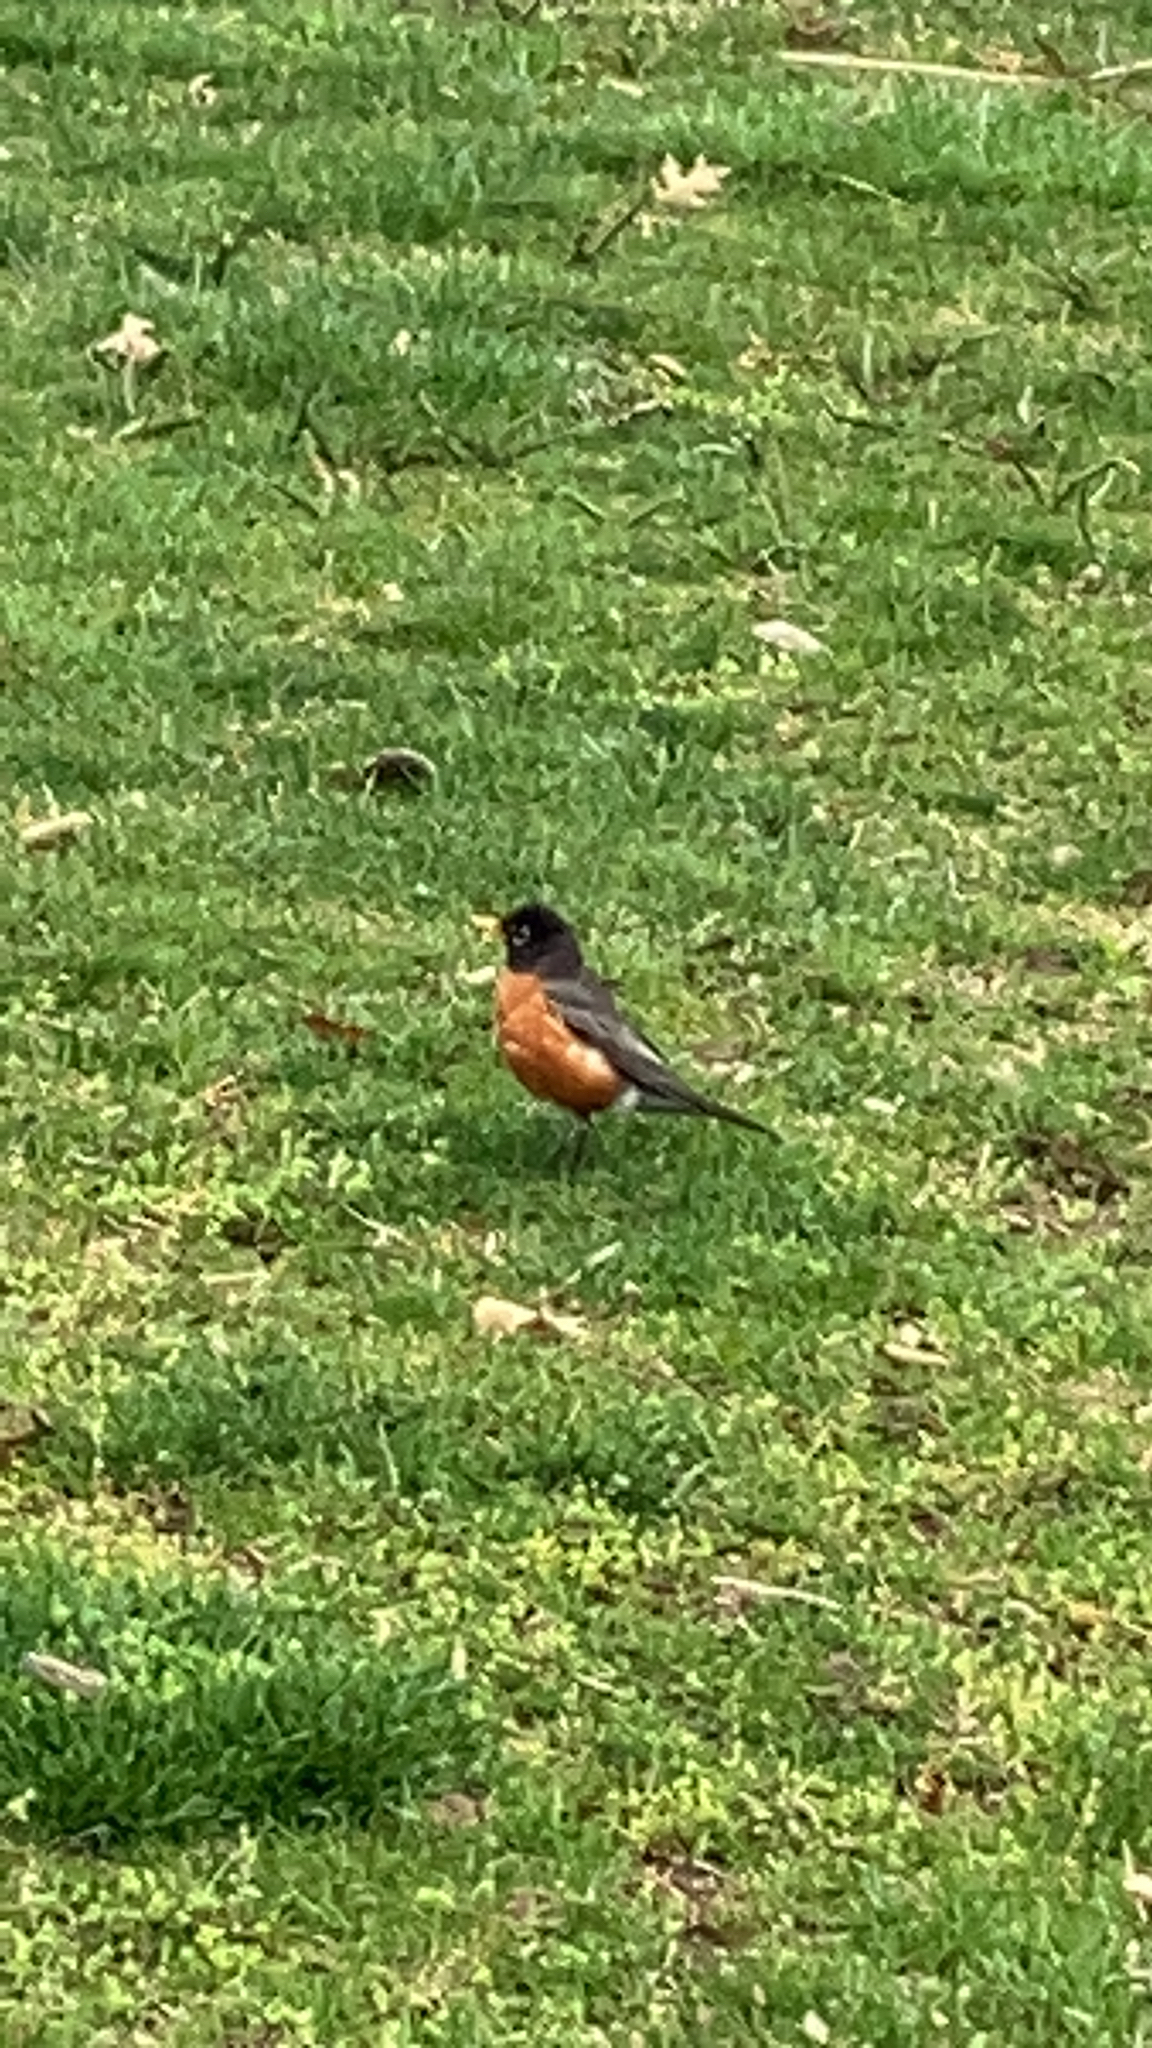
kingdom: Animalia
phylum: Chordata
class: Aves
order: Passeriformes
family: Turdidae
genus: Turdus
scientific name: Turdus migratorius
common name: American robin
